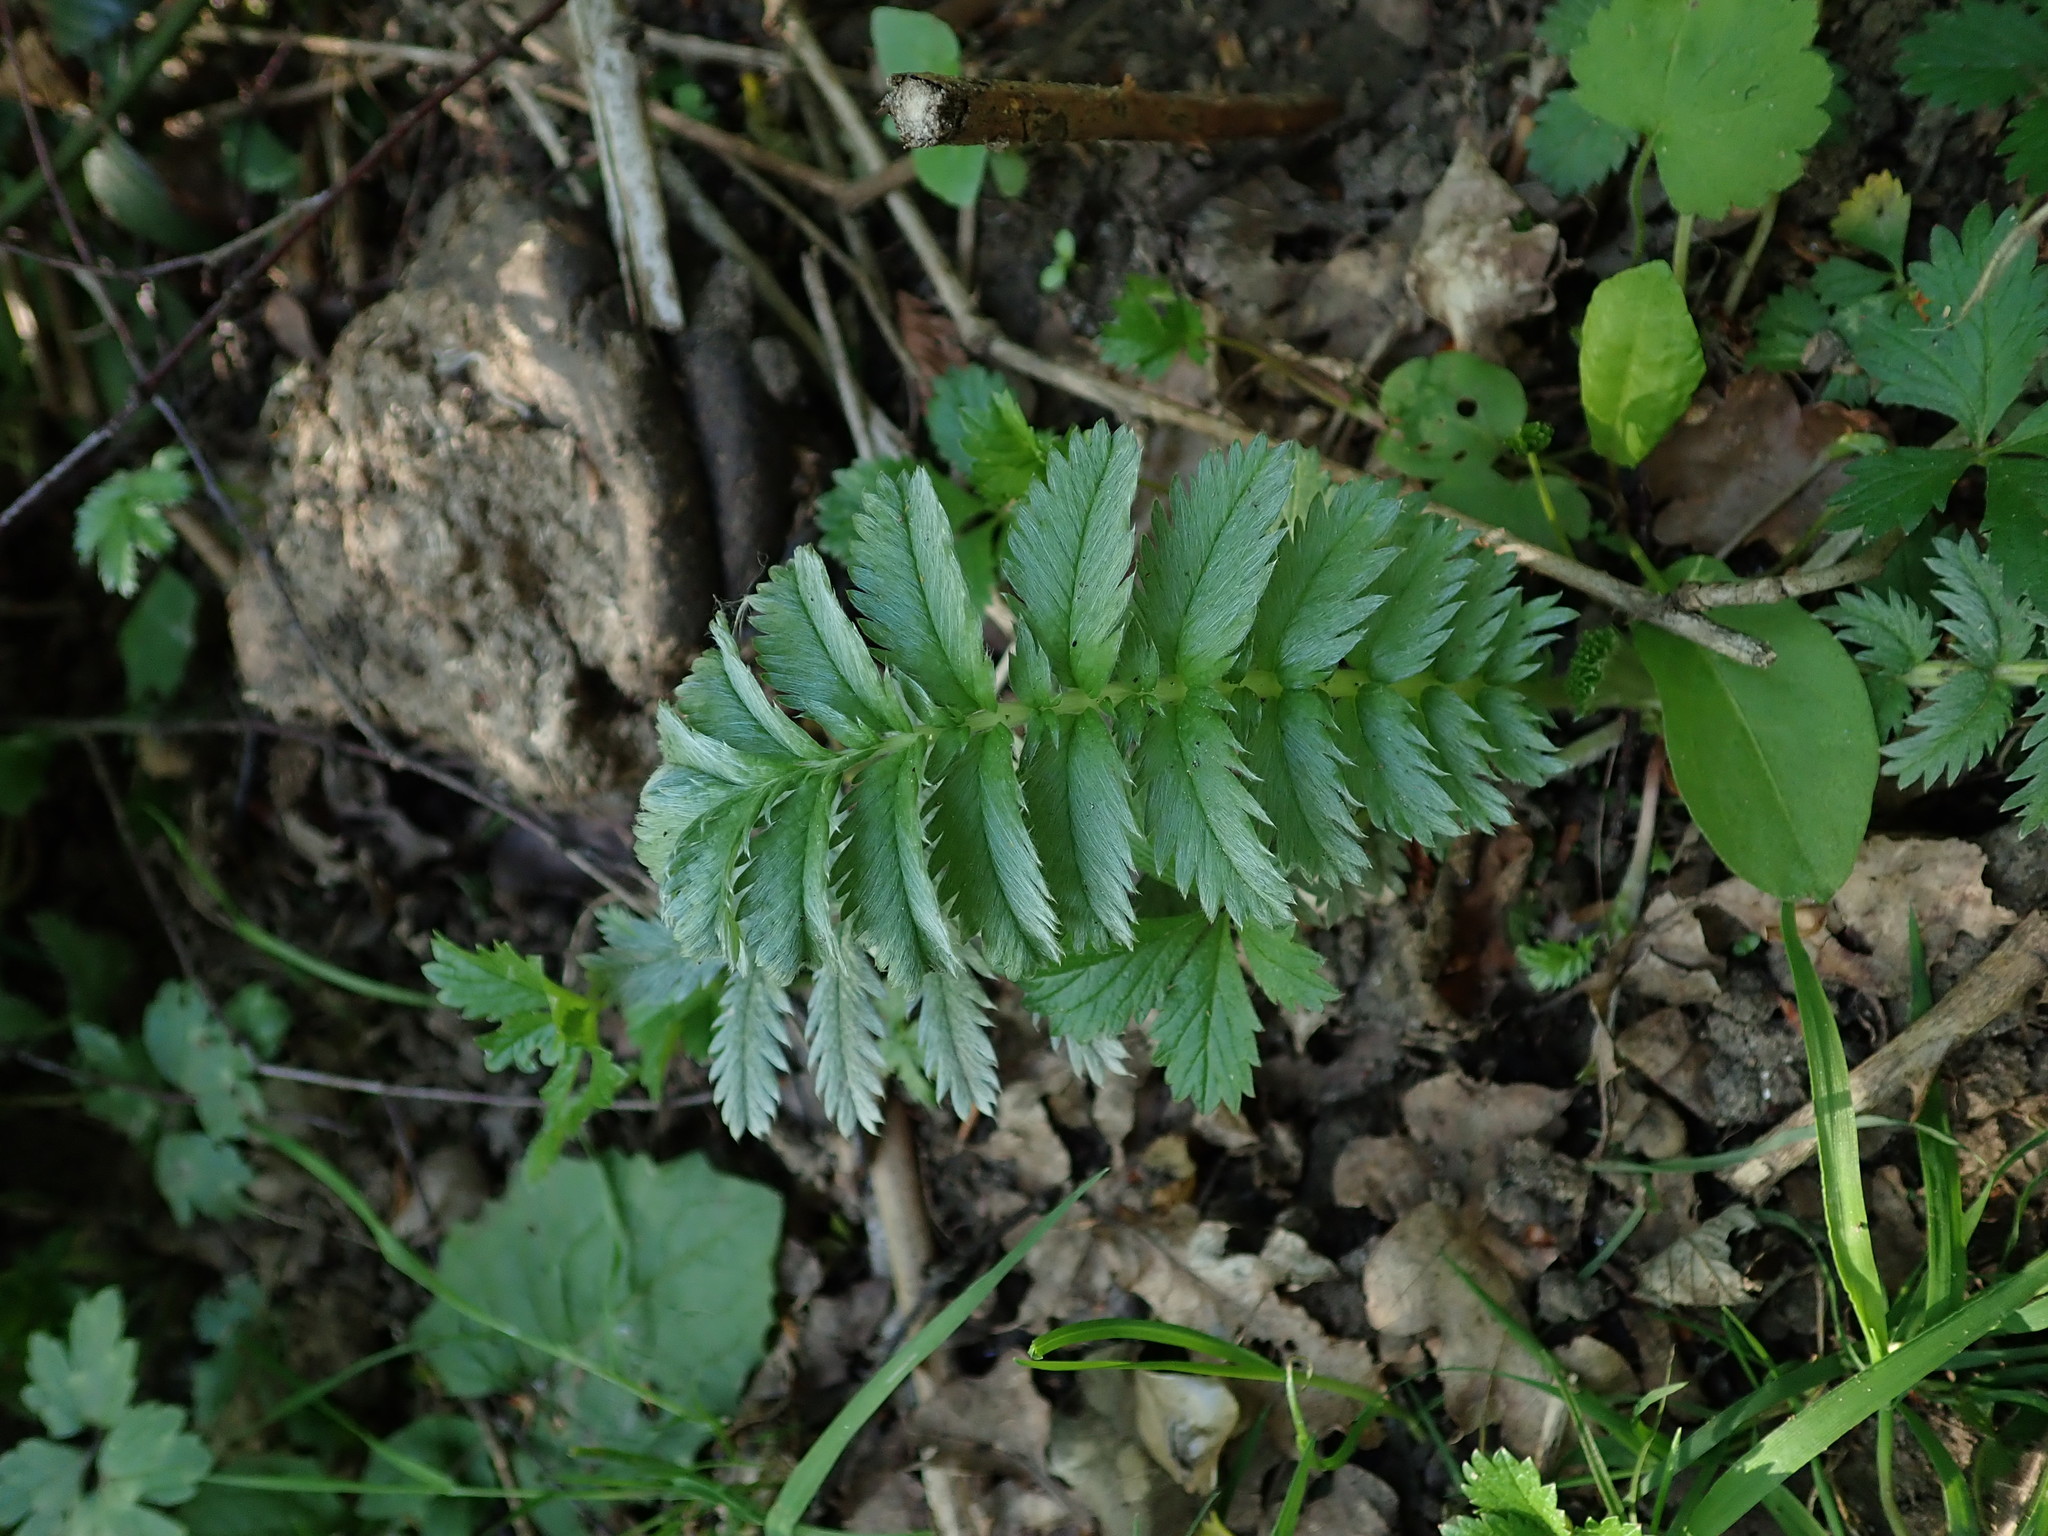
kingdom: Plantae
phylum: Tracheophyta
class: Magnoliopsida
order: Rosales
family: Rosaceae
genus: Argentina
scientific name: Argentina anserina
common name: Common silverweed
